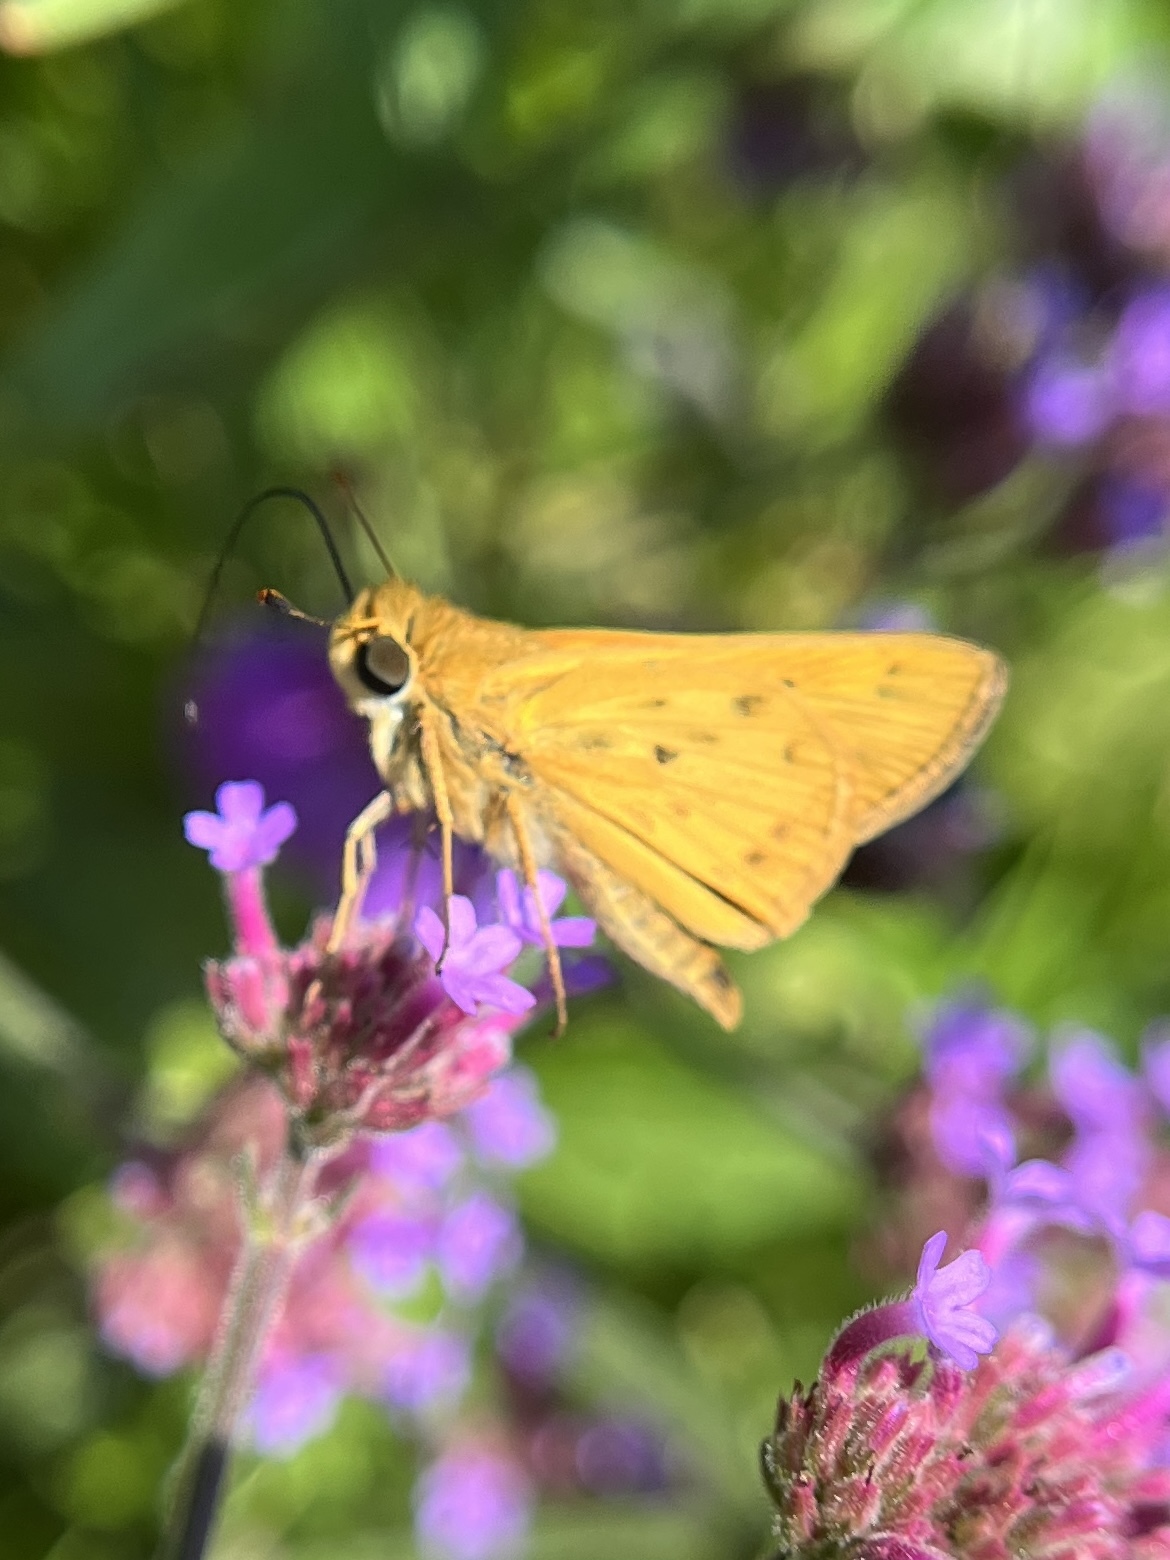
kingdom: Animalia
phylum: Arthropoda
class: Insecta
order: Lepidoptera
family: Hesperiidae
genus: Hylephila
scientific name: Hylephila phyleus
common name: Fiery skipper
